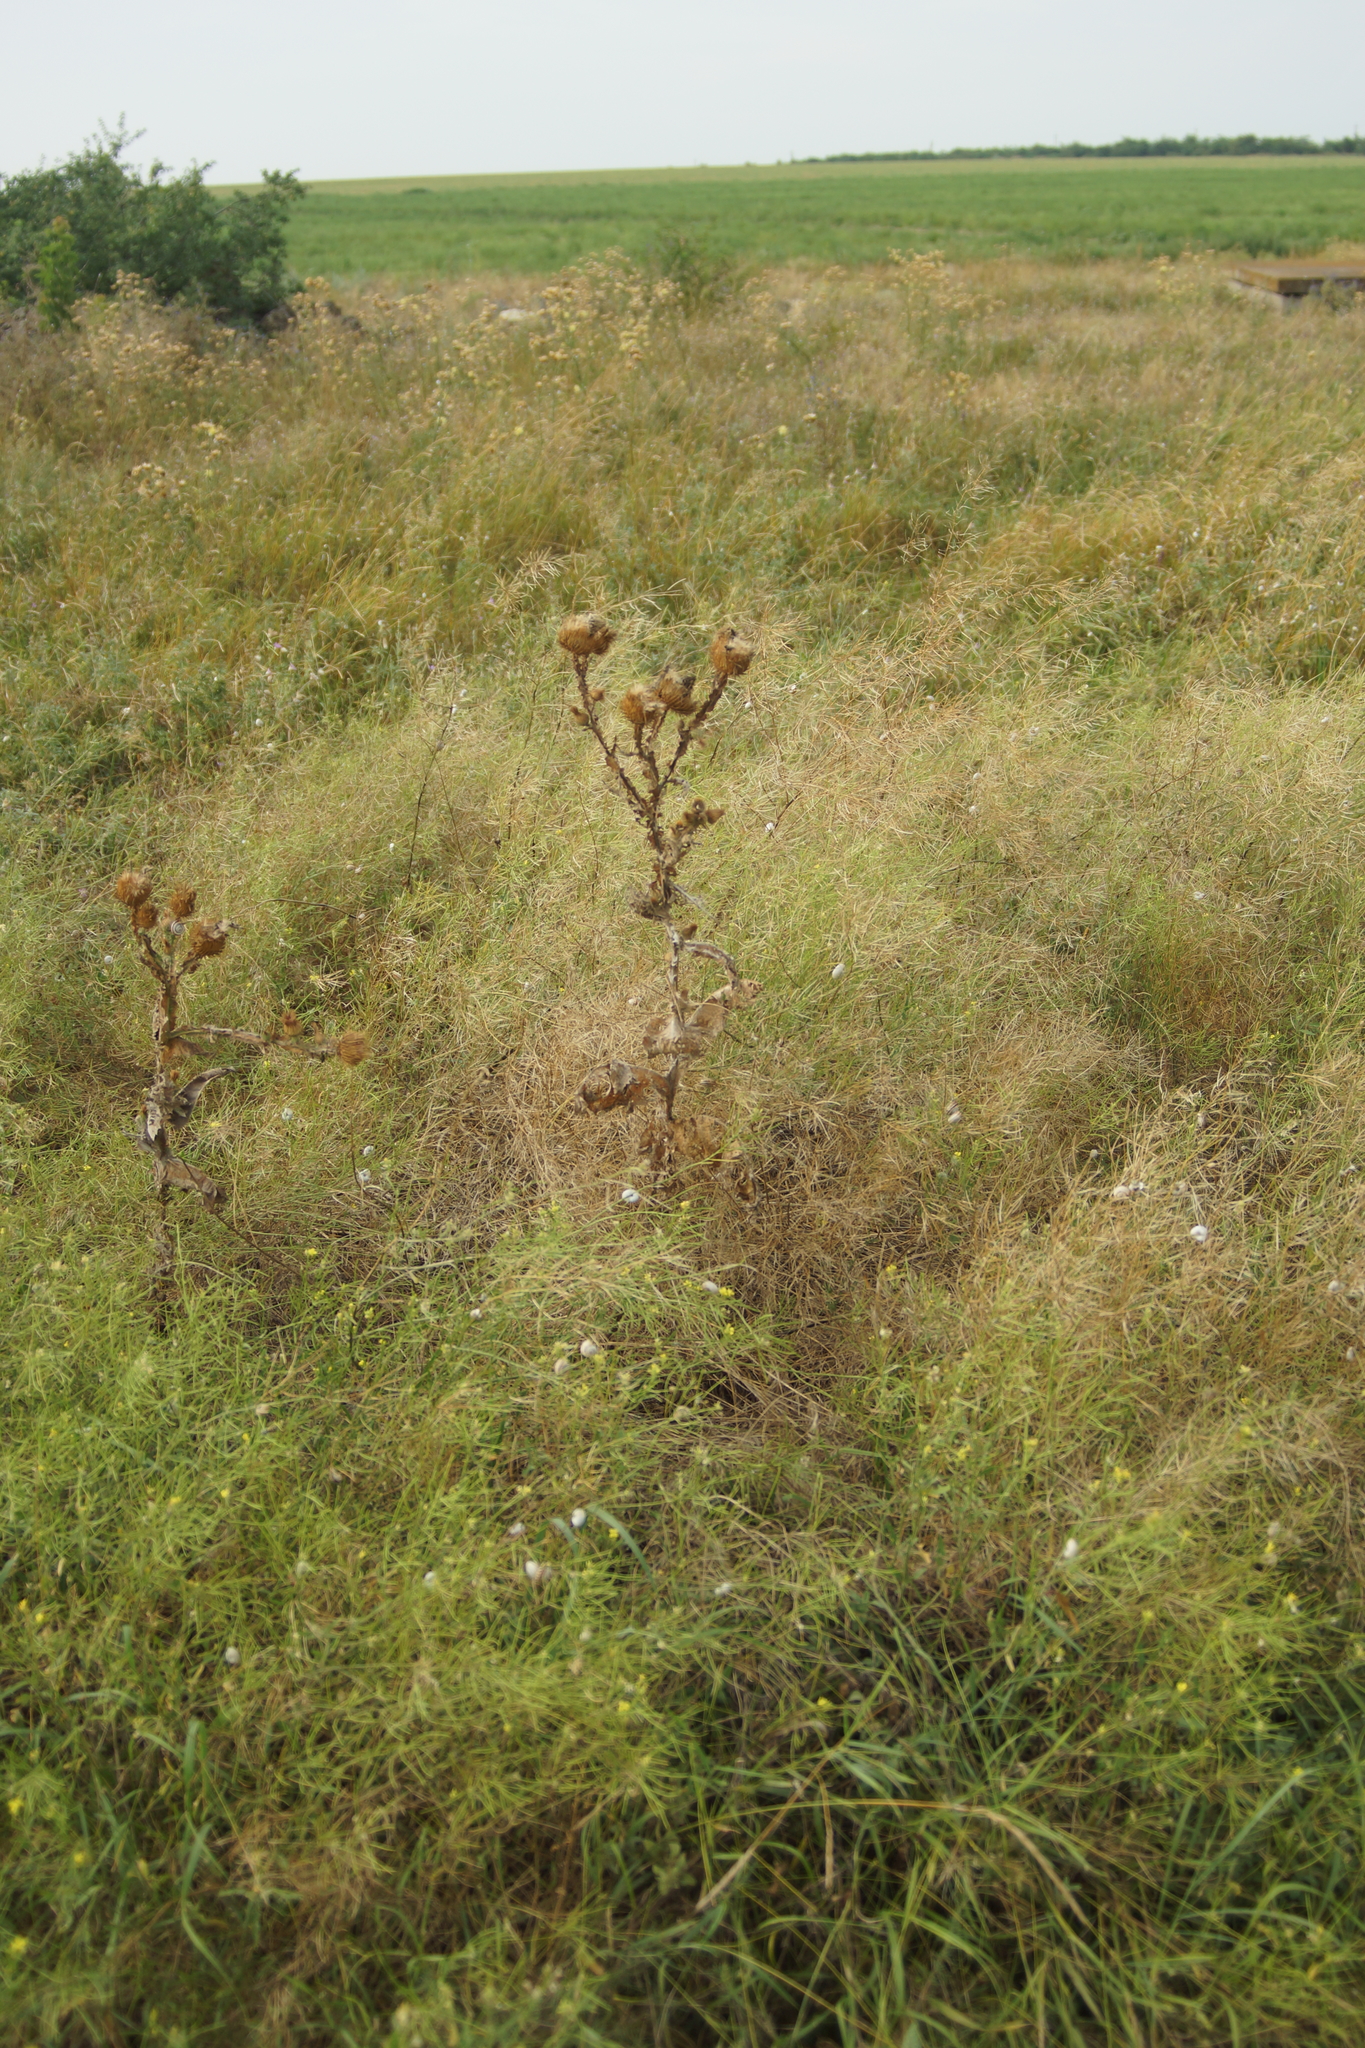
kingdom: Plantae
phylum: Tracheophyta
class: Magnoliopsida
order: Asterales
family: Asteraceae
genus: Onopordum
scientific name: Onopordum acanthium
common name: Scotch thistle
